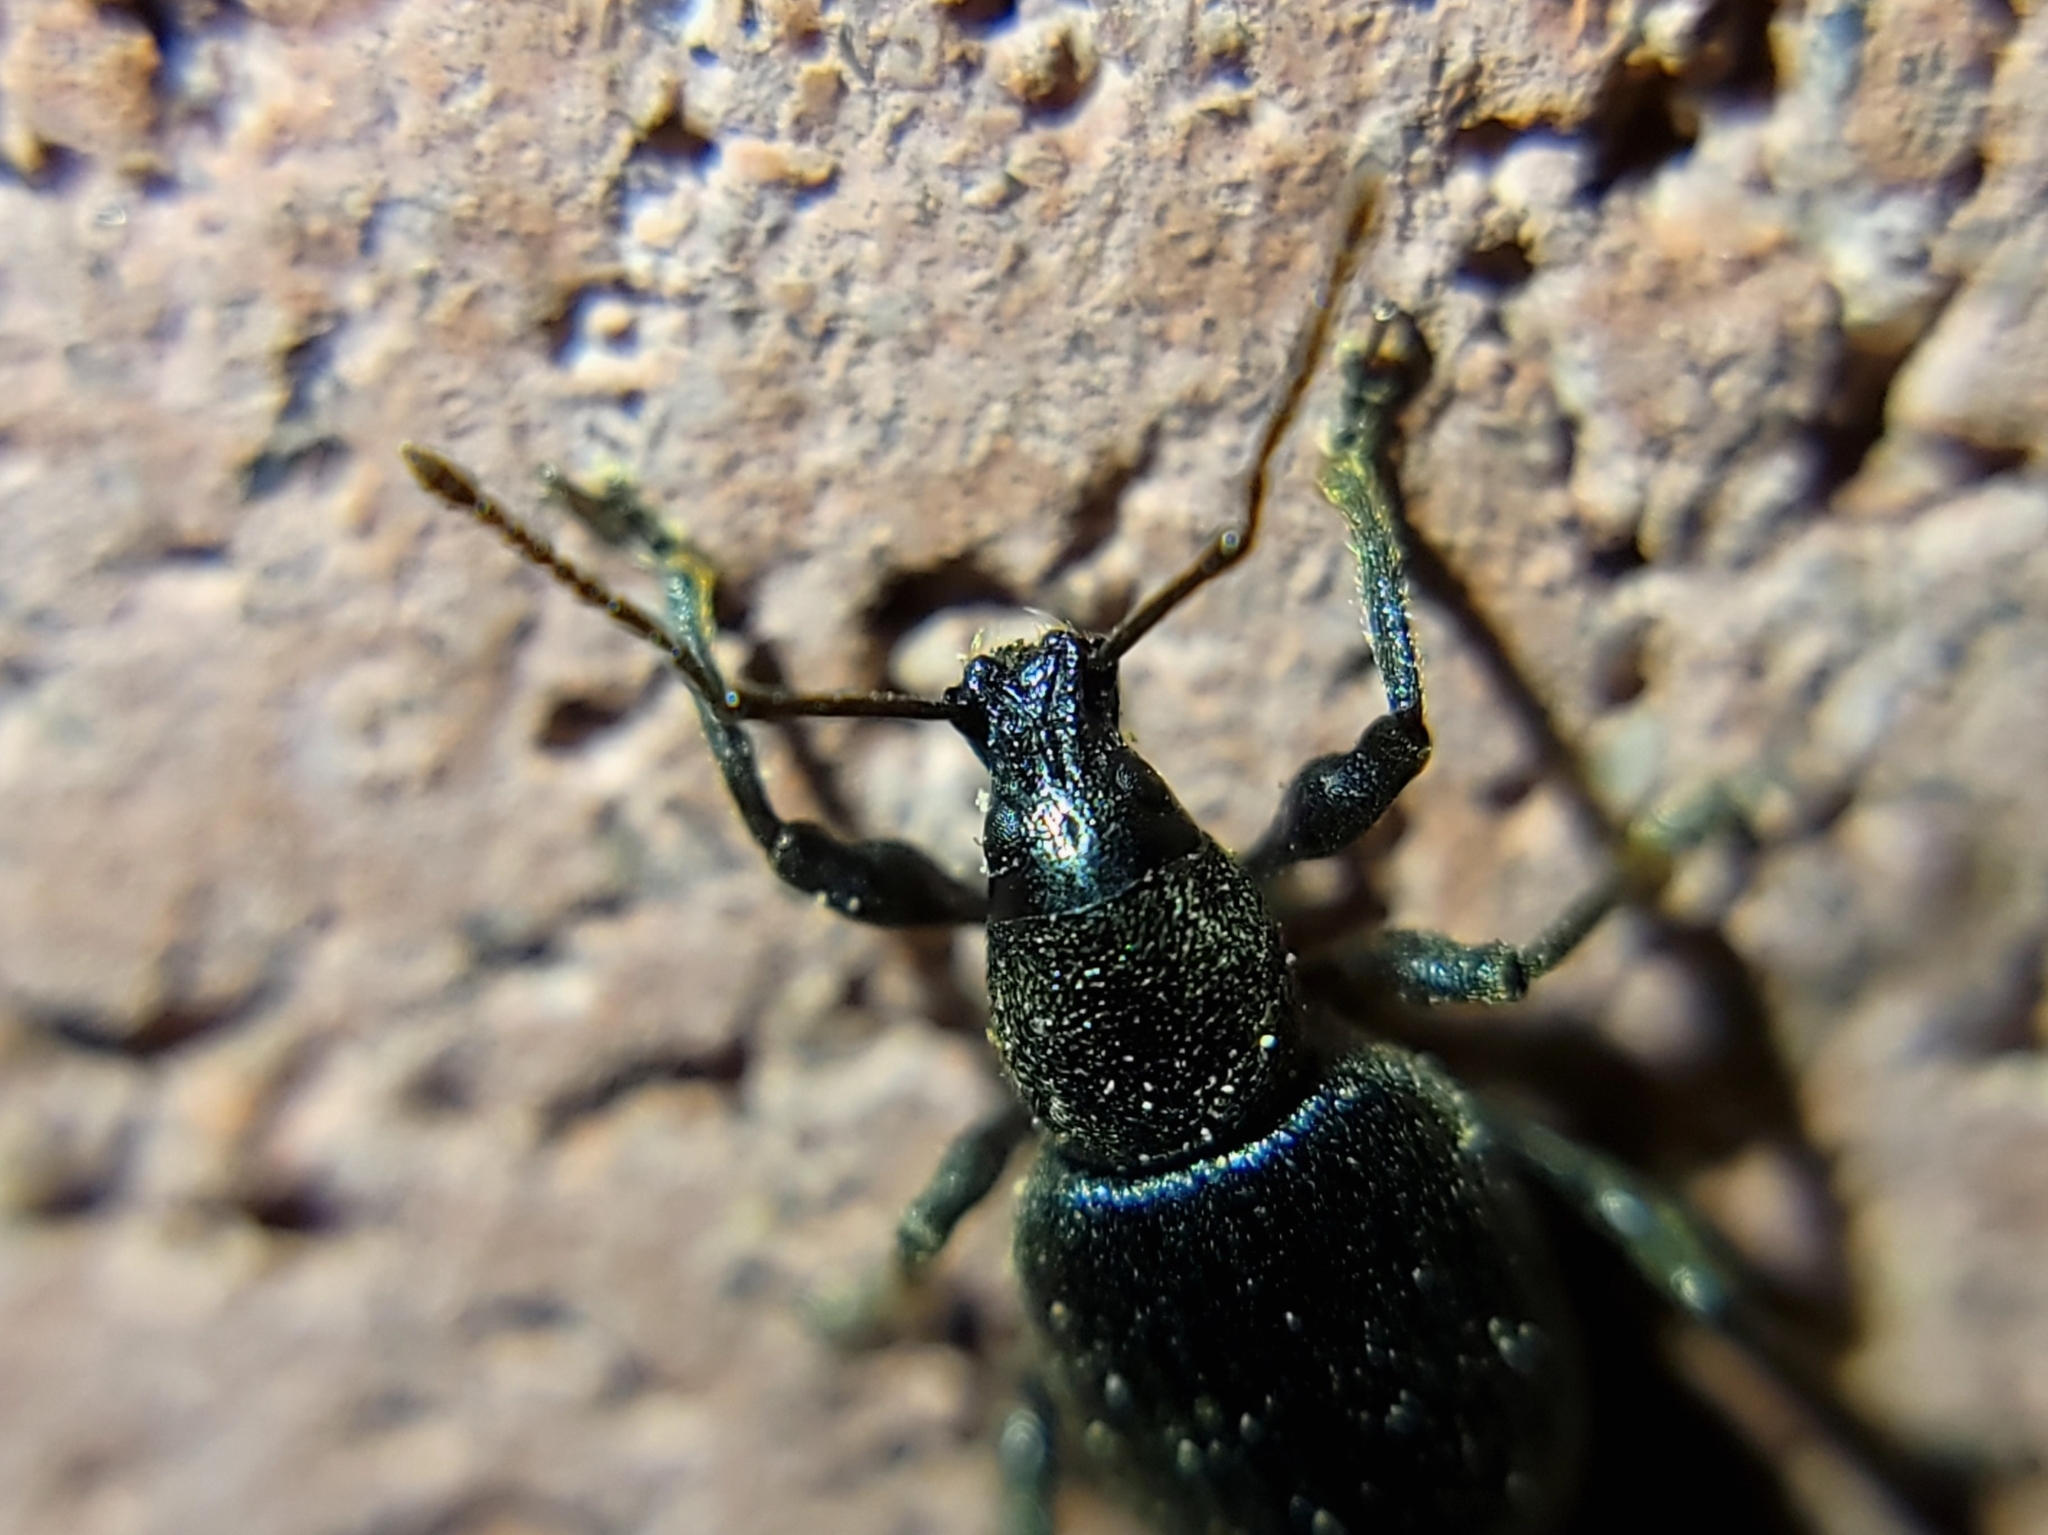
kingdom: Animalia
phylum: Arthropoda
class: Insecta
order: Coleoptera
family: Curculionidae
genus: Otiorhynchus
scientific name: Otiorhynchus meridionalis
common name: Weevil
